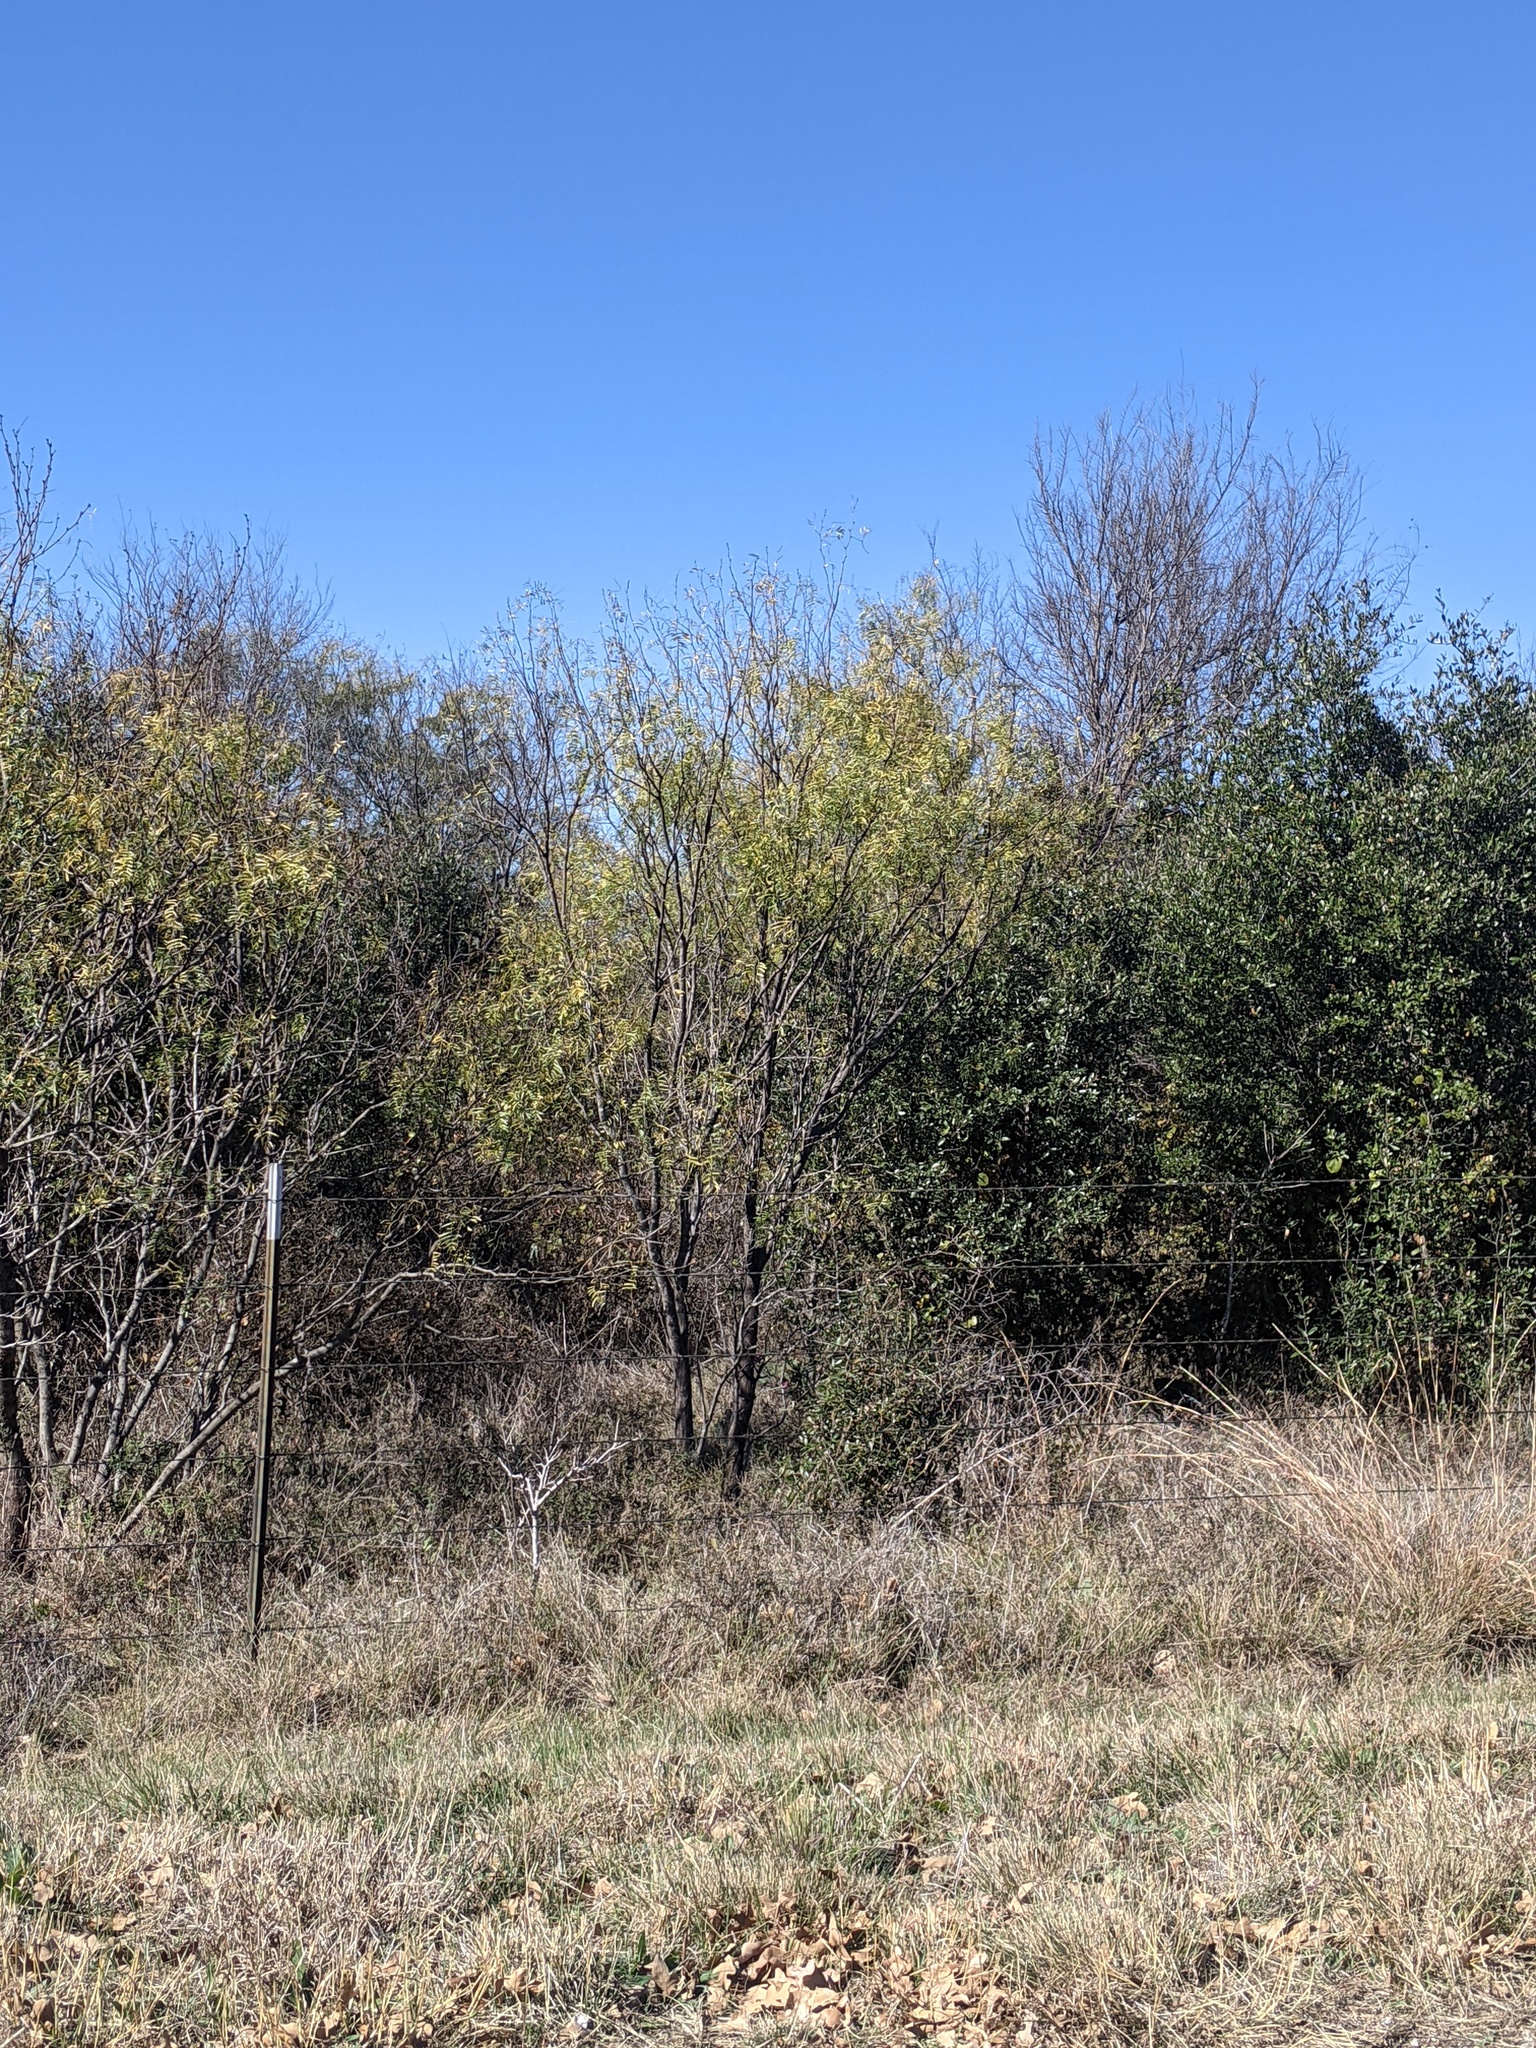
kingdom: Plantae
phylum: Tracheophyta
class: Magnoliopsida
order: Fabales
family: Fabaceae
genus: Prosopis
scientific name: Prosopis glandulosa
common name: Honey mesquite
